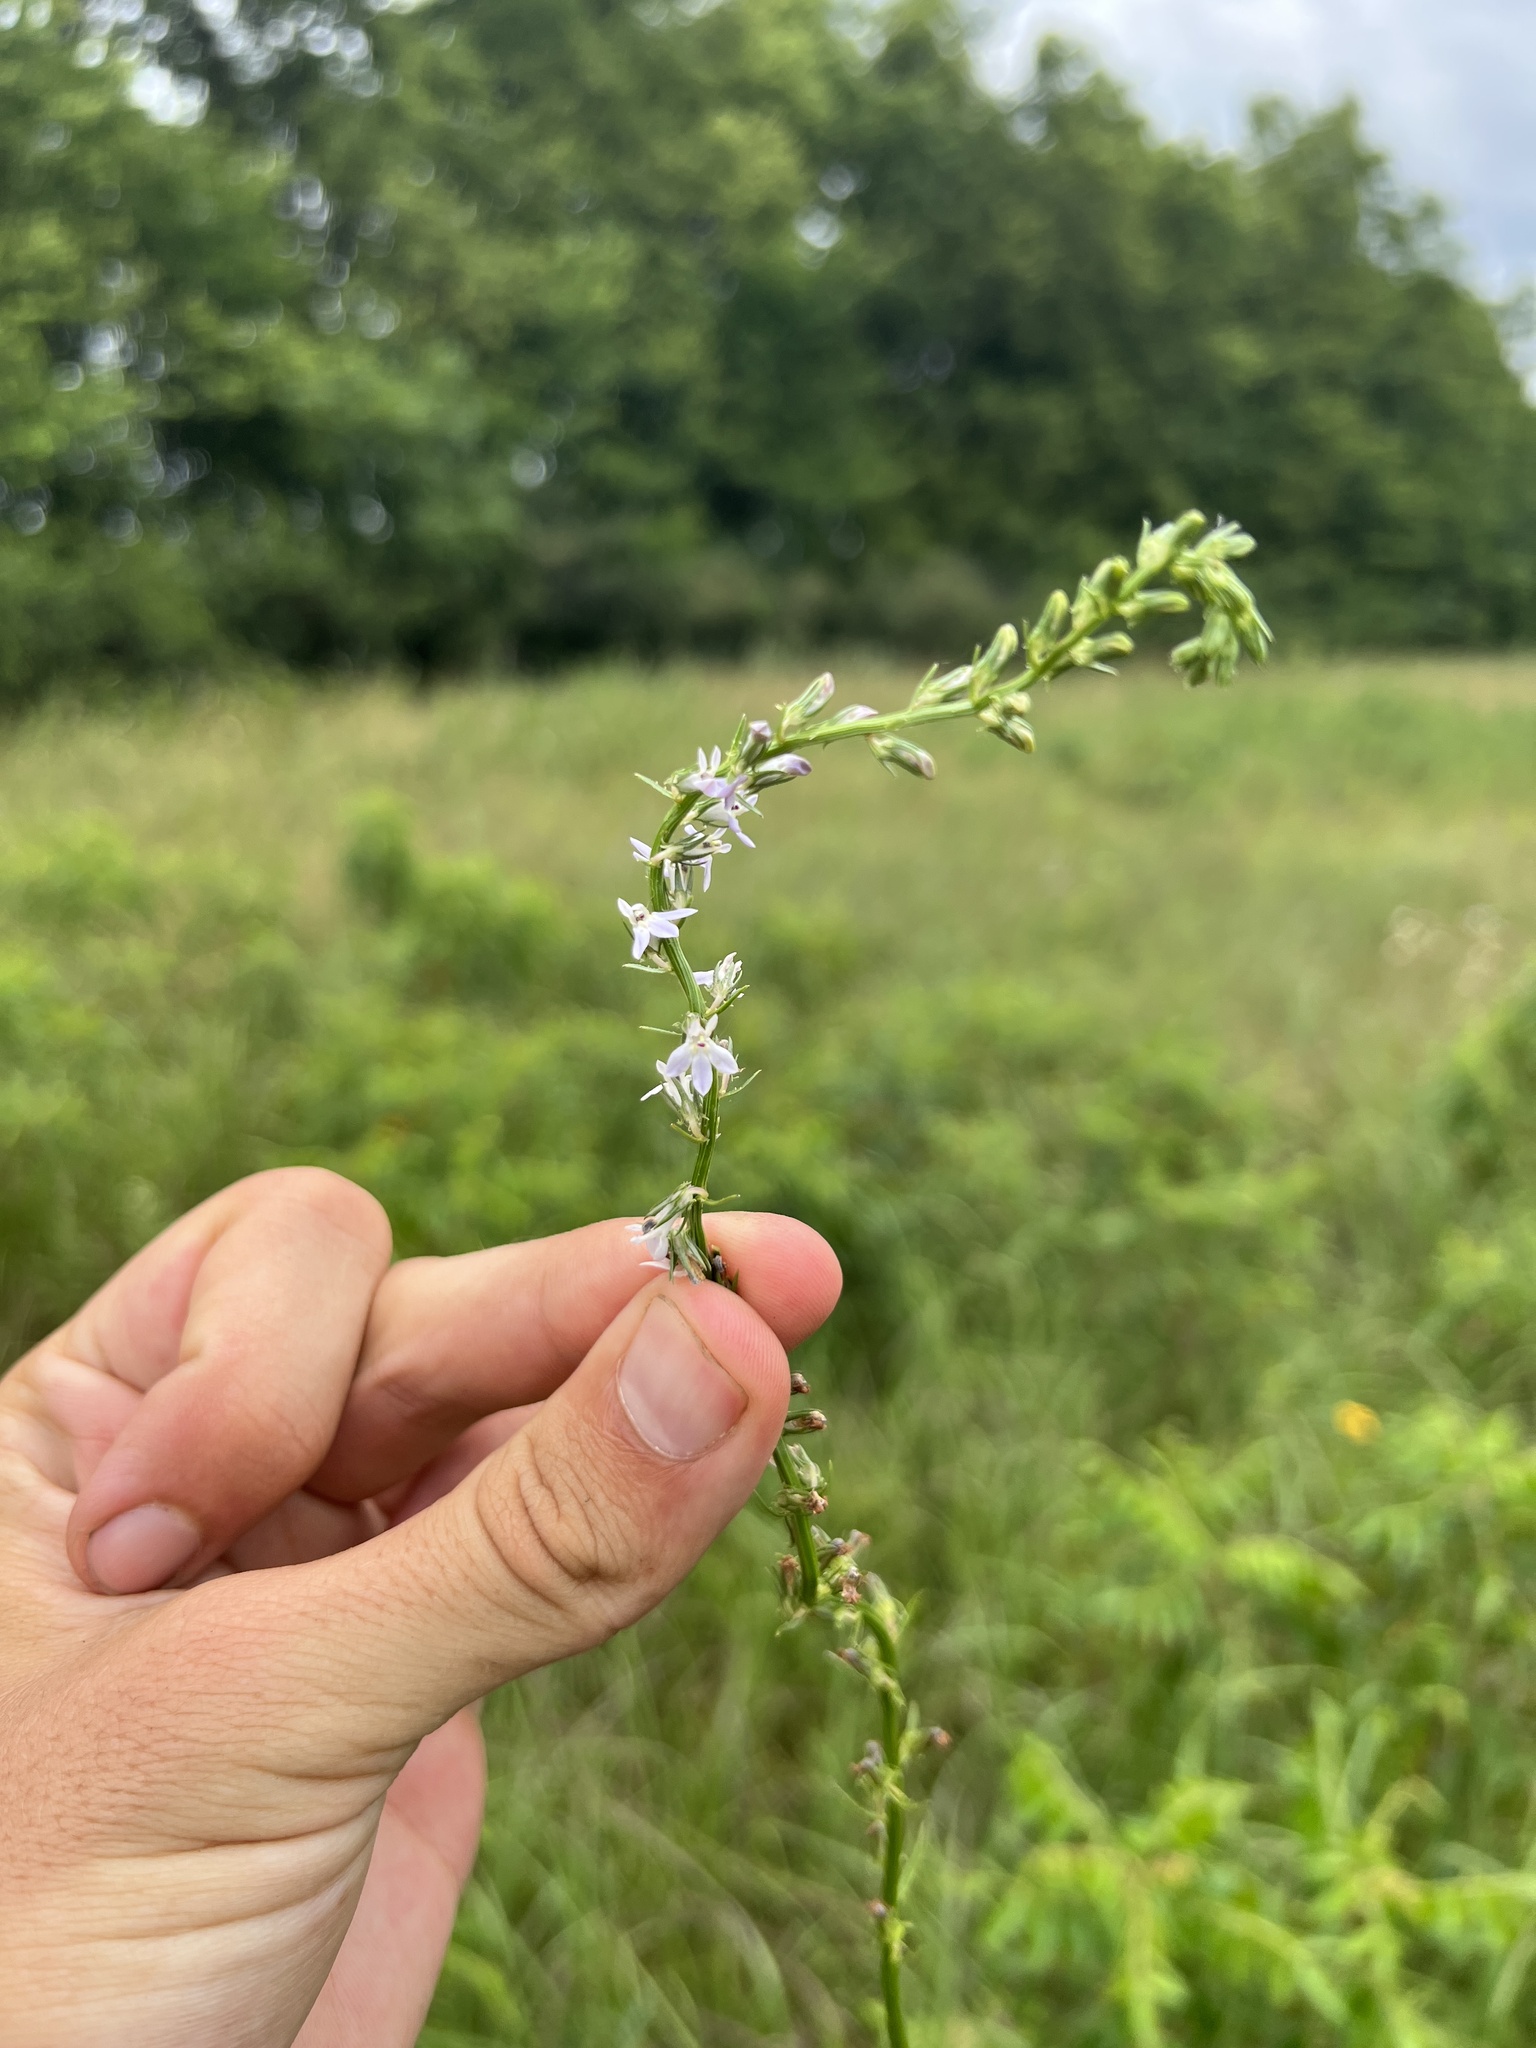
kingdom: Plantae
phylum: Tracheophyta
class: Magnoliopsida
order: Asterales
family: Campanulaceae
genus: Lobelia
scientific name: Lobelia spicata
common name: Pale-spike lobelia
